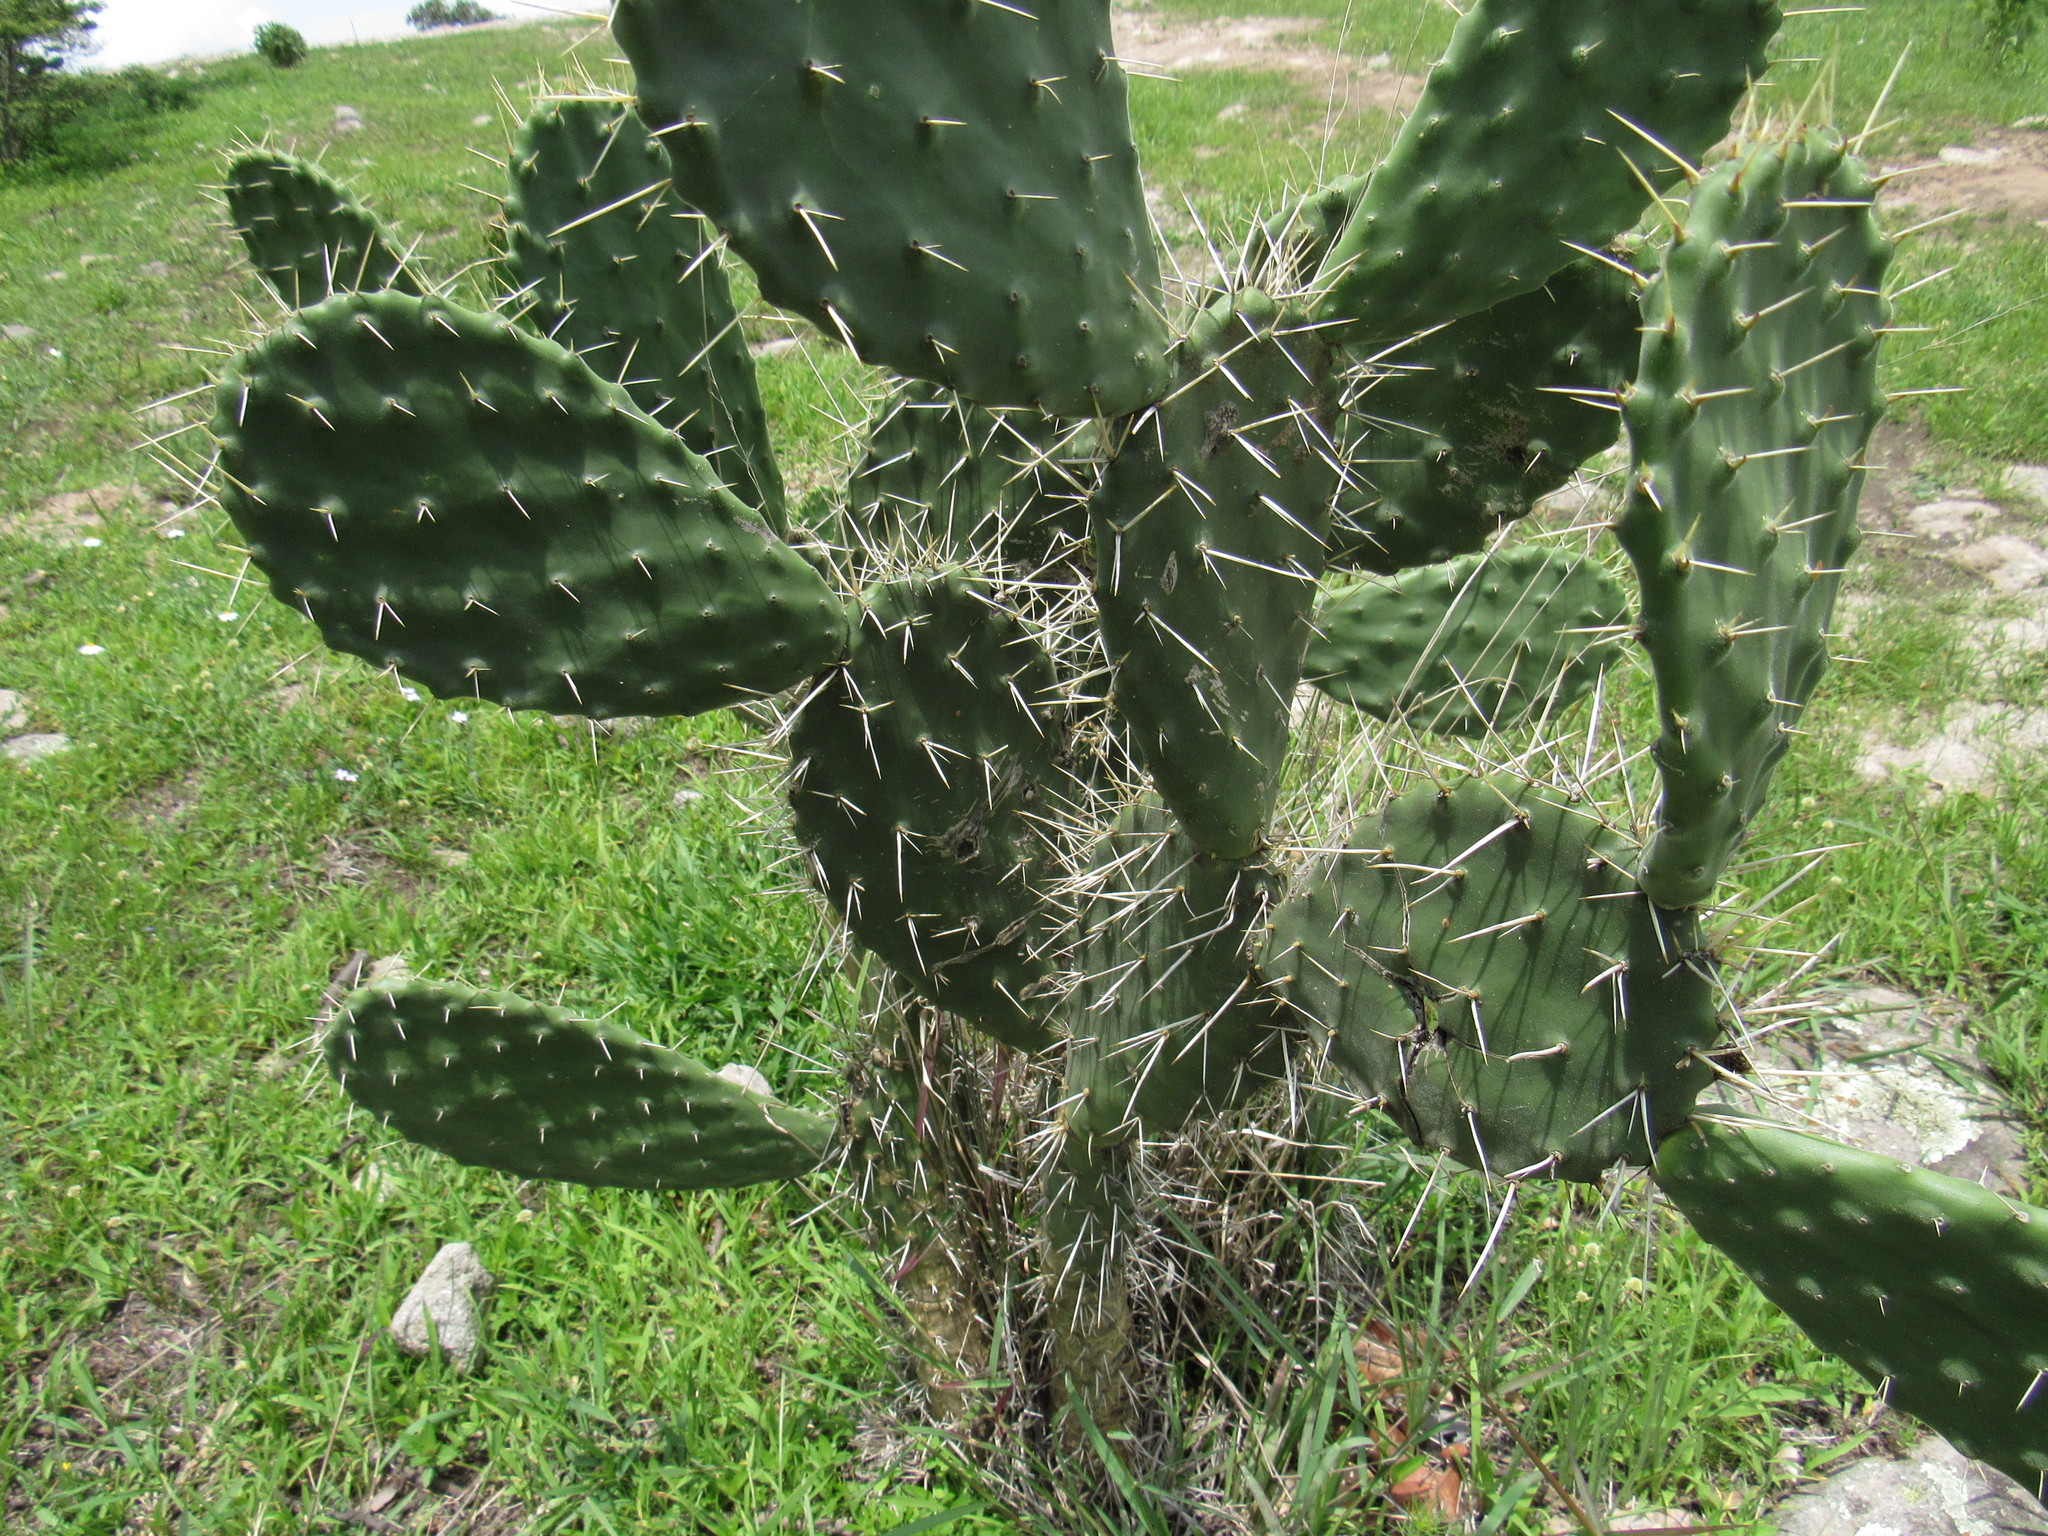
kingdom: Plantae
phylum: Tracheophyta
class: Magnoliopsida
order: Caryophyllales
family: Cactaceae
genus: Opuntia
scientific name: Opuntia tomentosa
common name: Woollyjoint pricklypear
